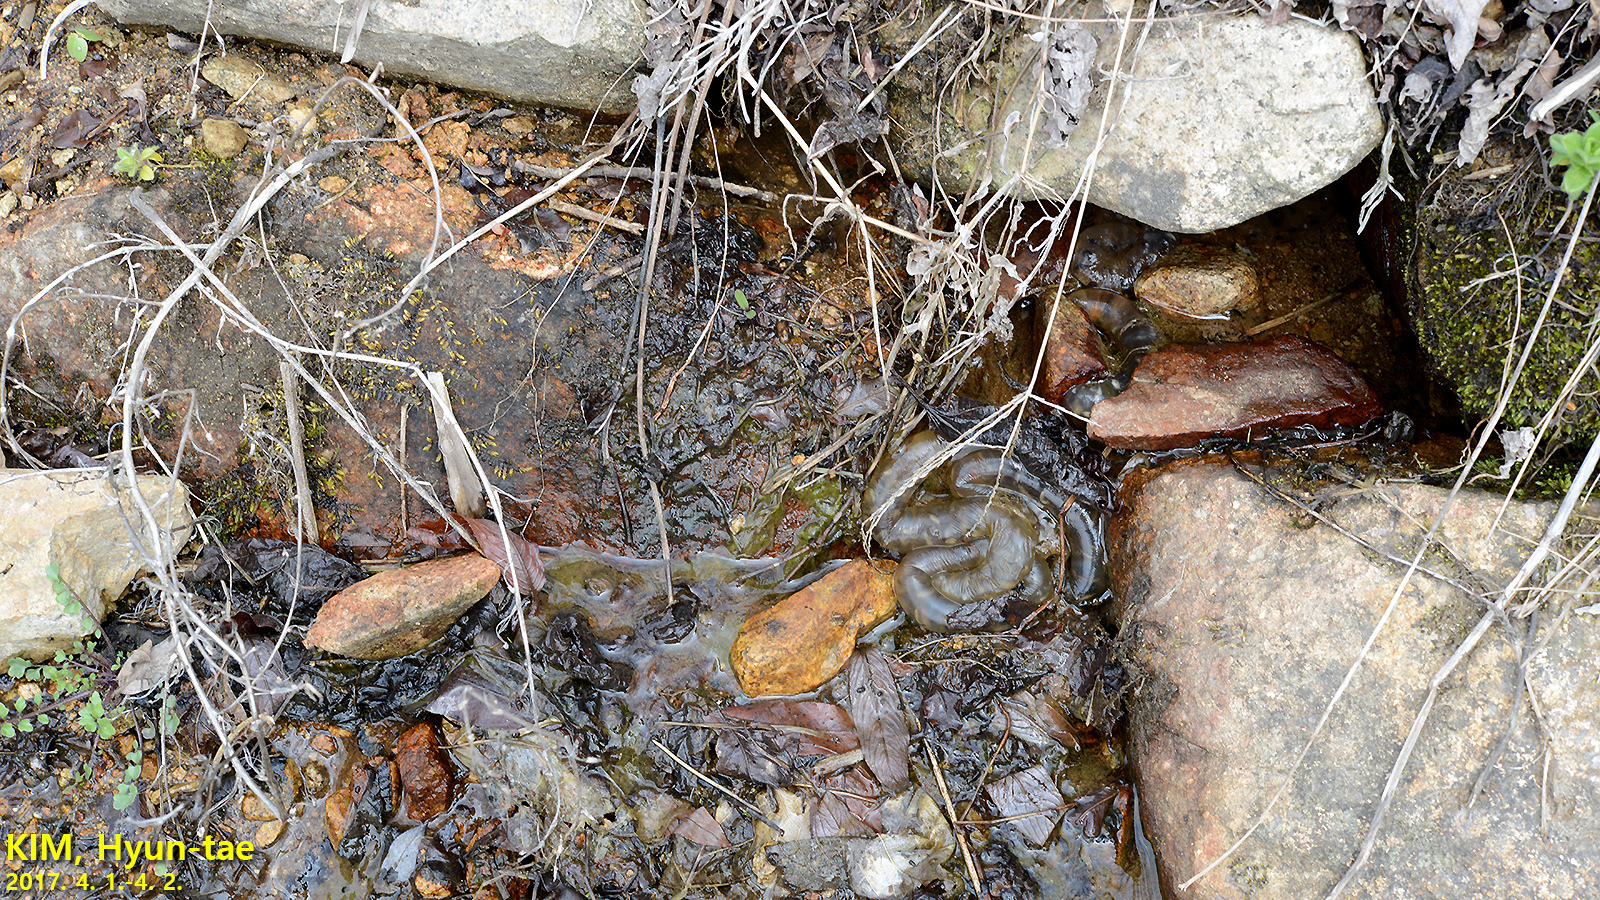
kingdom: Animalia
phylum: Chordata
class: Amphibia
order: Caudata
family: Hynobiidae
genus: Hynobius
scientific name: Hynobius quelpaertensis
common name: Cheju salamander
